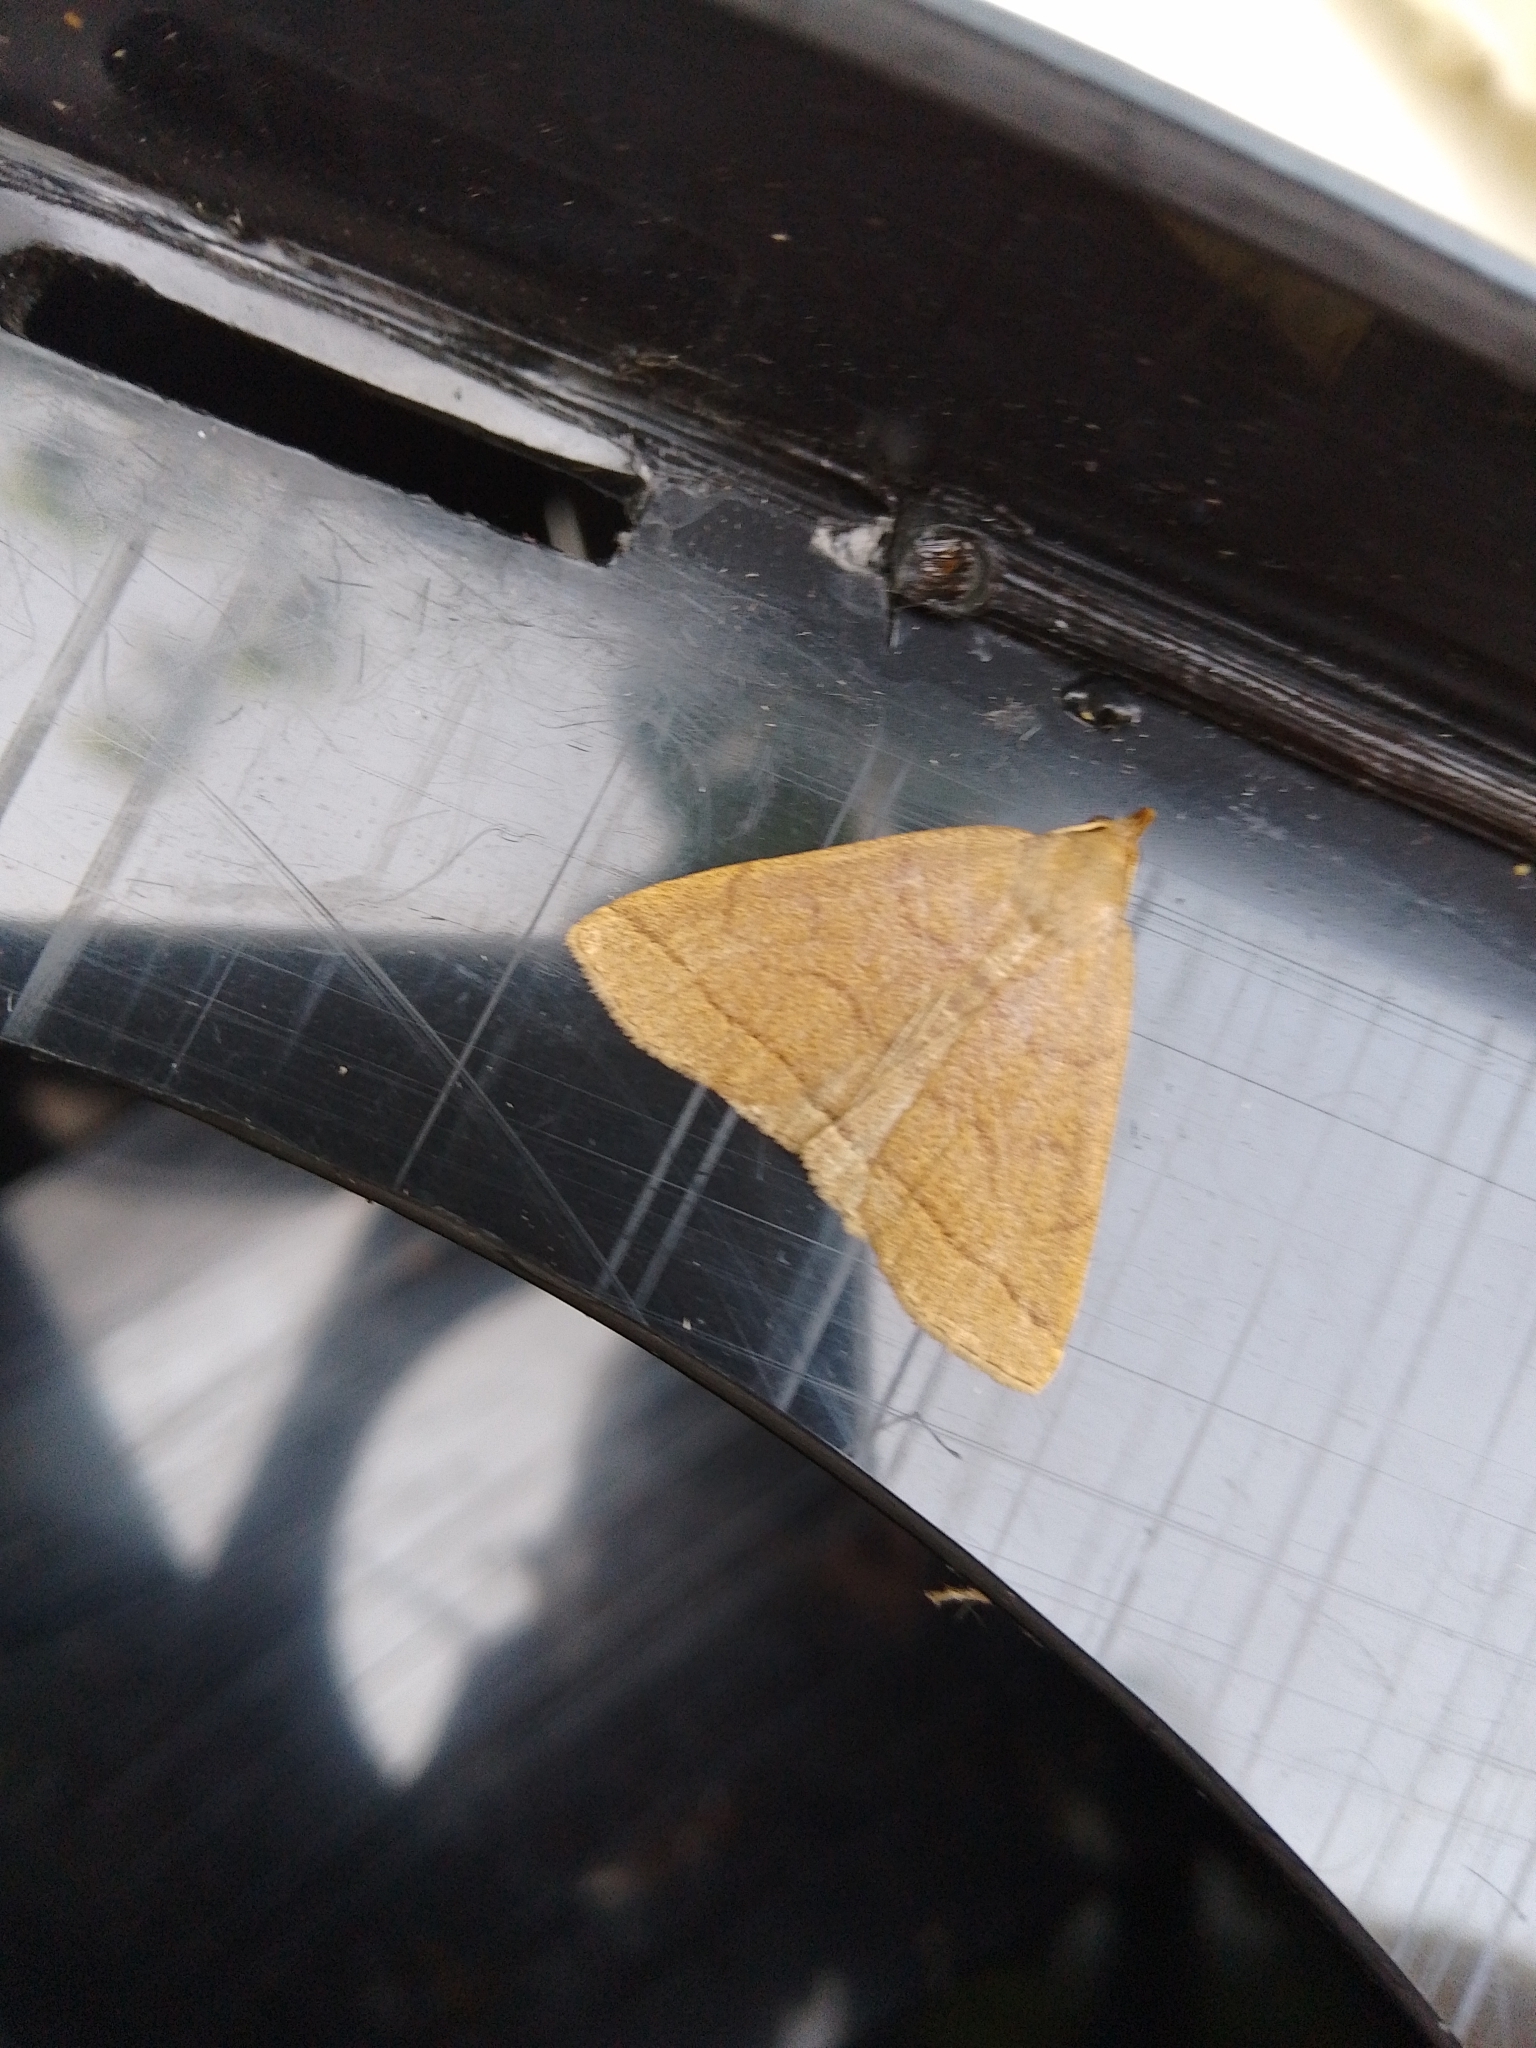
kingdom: Animalia
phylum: Arthropoda
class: Insecta
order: Lepidoptera
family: Erebidae
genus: Herminia
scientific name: Herminia tarsipennalis
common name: Fan-foot
